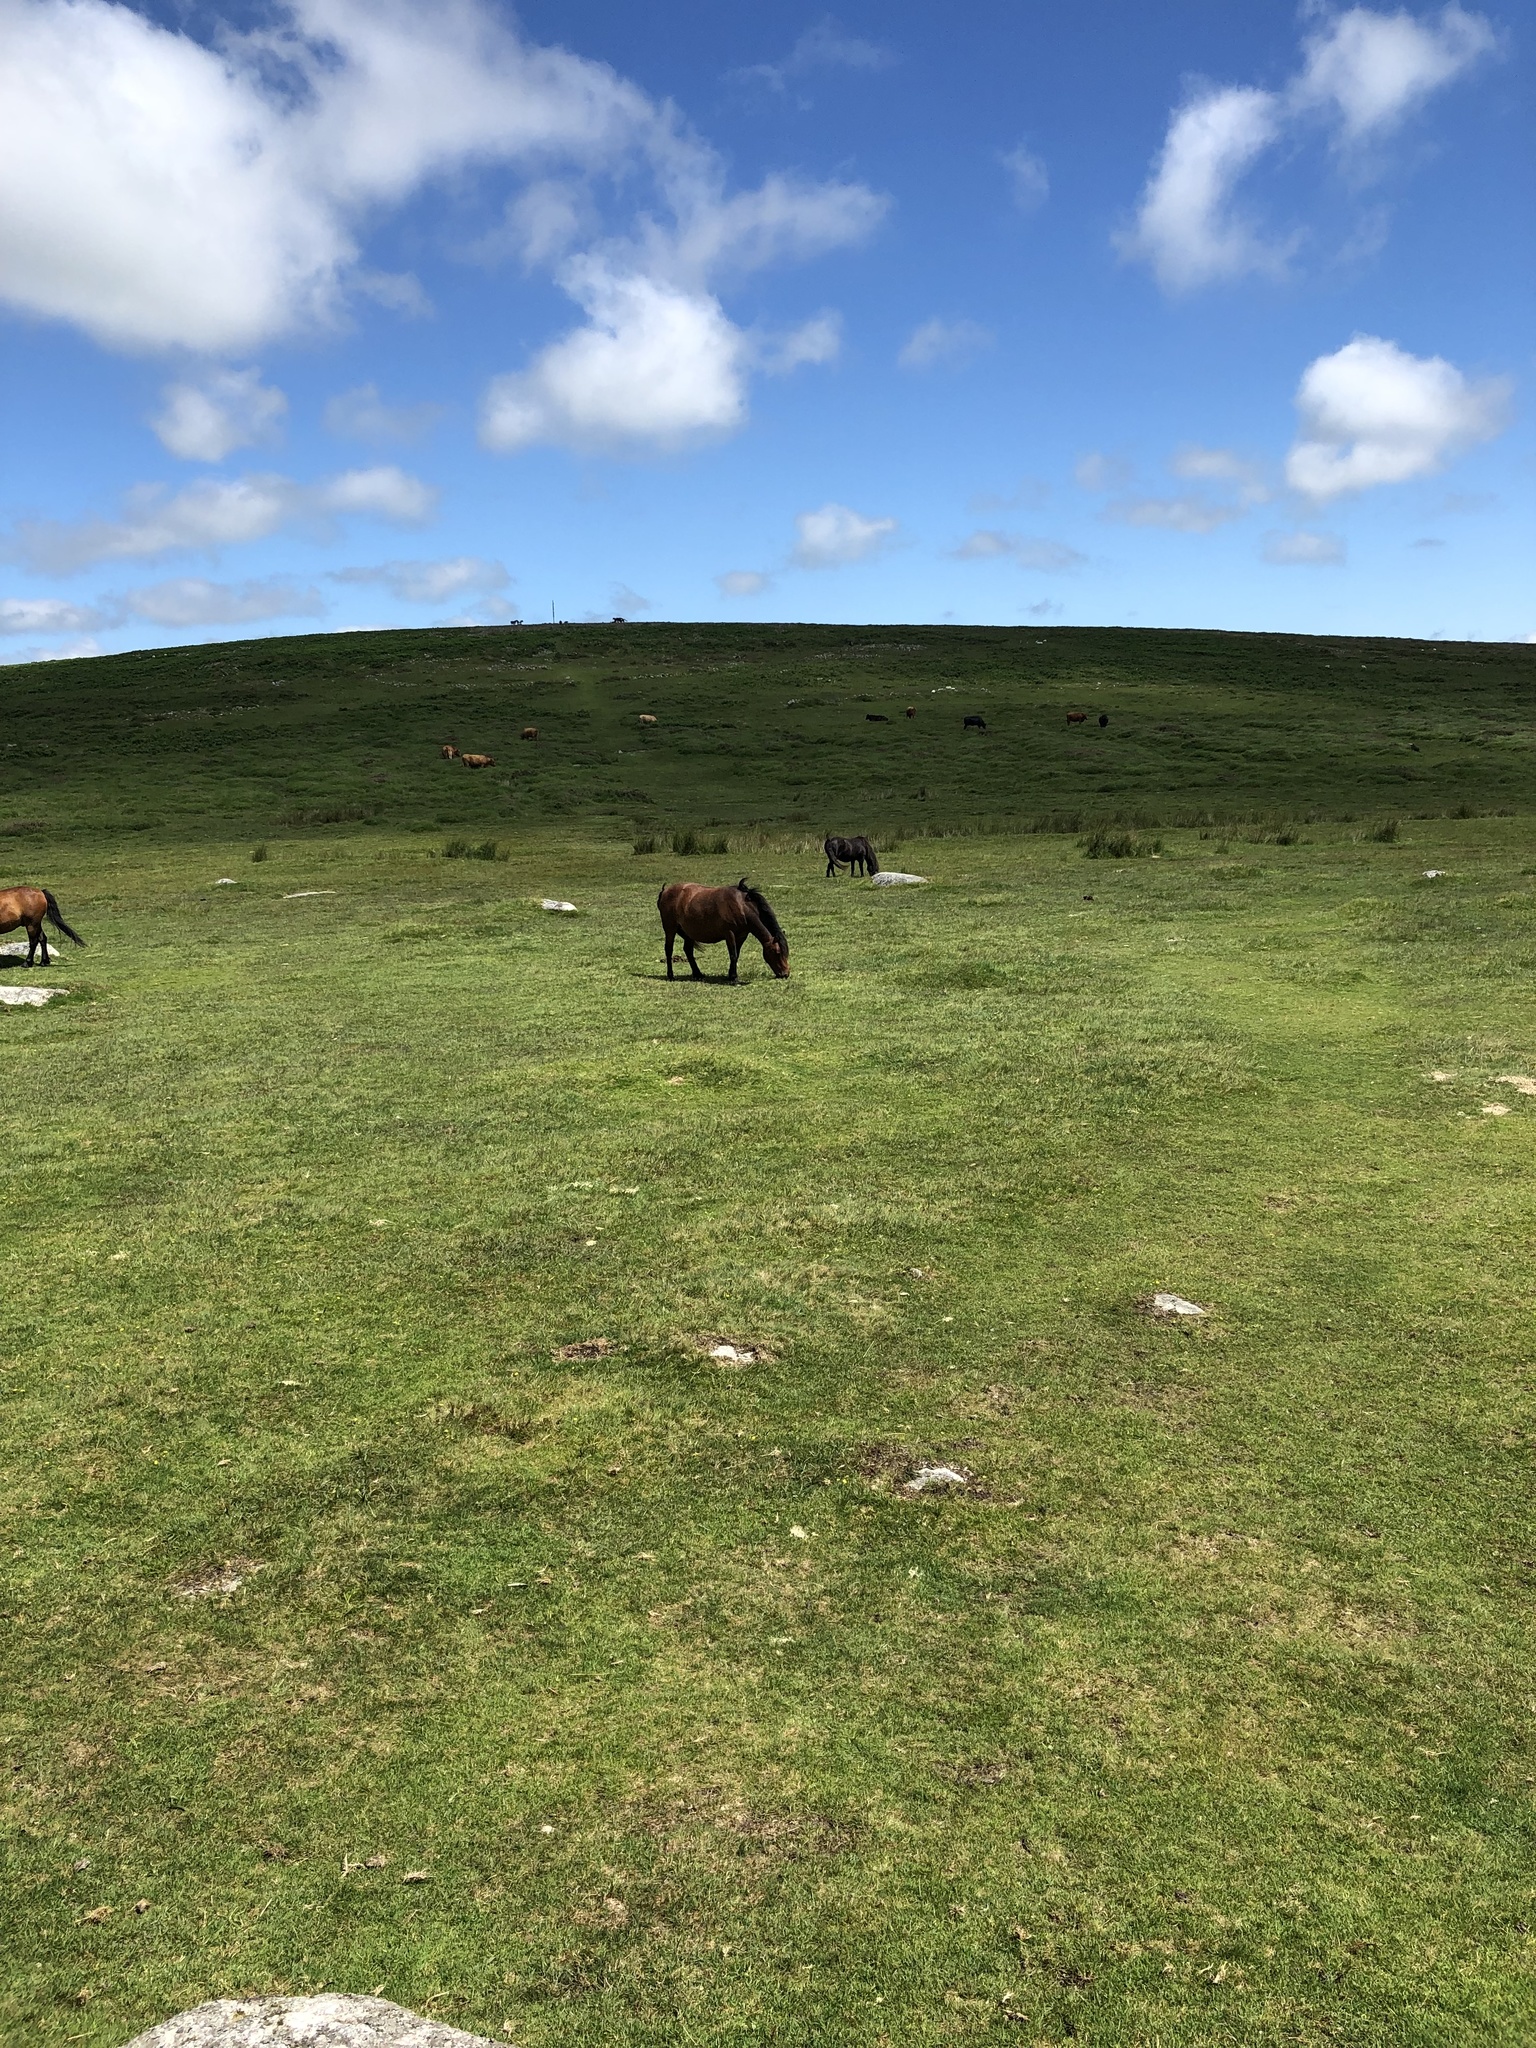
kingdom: Animalia
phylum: Chordata
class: Mammalia
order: Perissodactyla
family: Equidae
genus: Equus
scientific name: Equus caballus
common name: Horse
